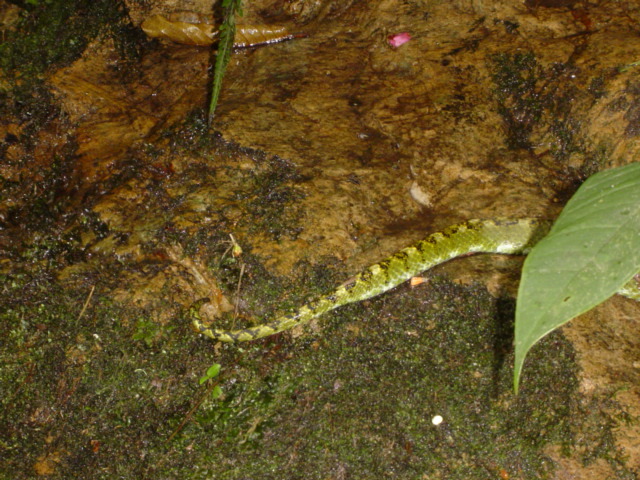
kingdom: Animalia
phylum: Chordata
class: Squamata
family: Viperidae
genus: Bothriechis
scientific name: Bothriechis schlegelii
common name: Eyelash viper
